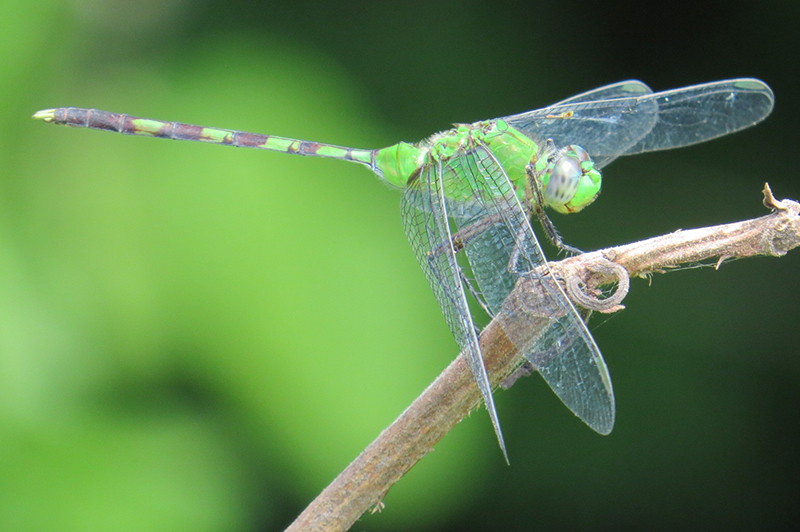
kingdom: Animalia
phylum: Arthropoda
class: Insecta
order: Odonata
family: Libellulidae
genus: Erythemis
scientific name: Erythemis vesiculosa
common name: Great pondhawk
